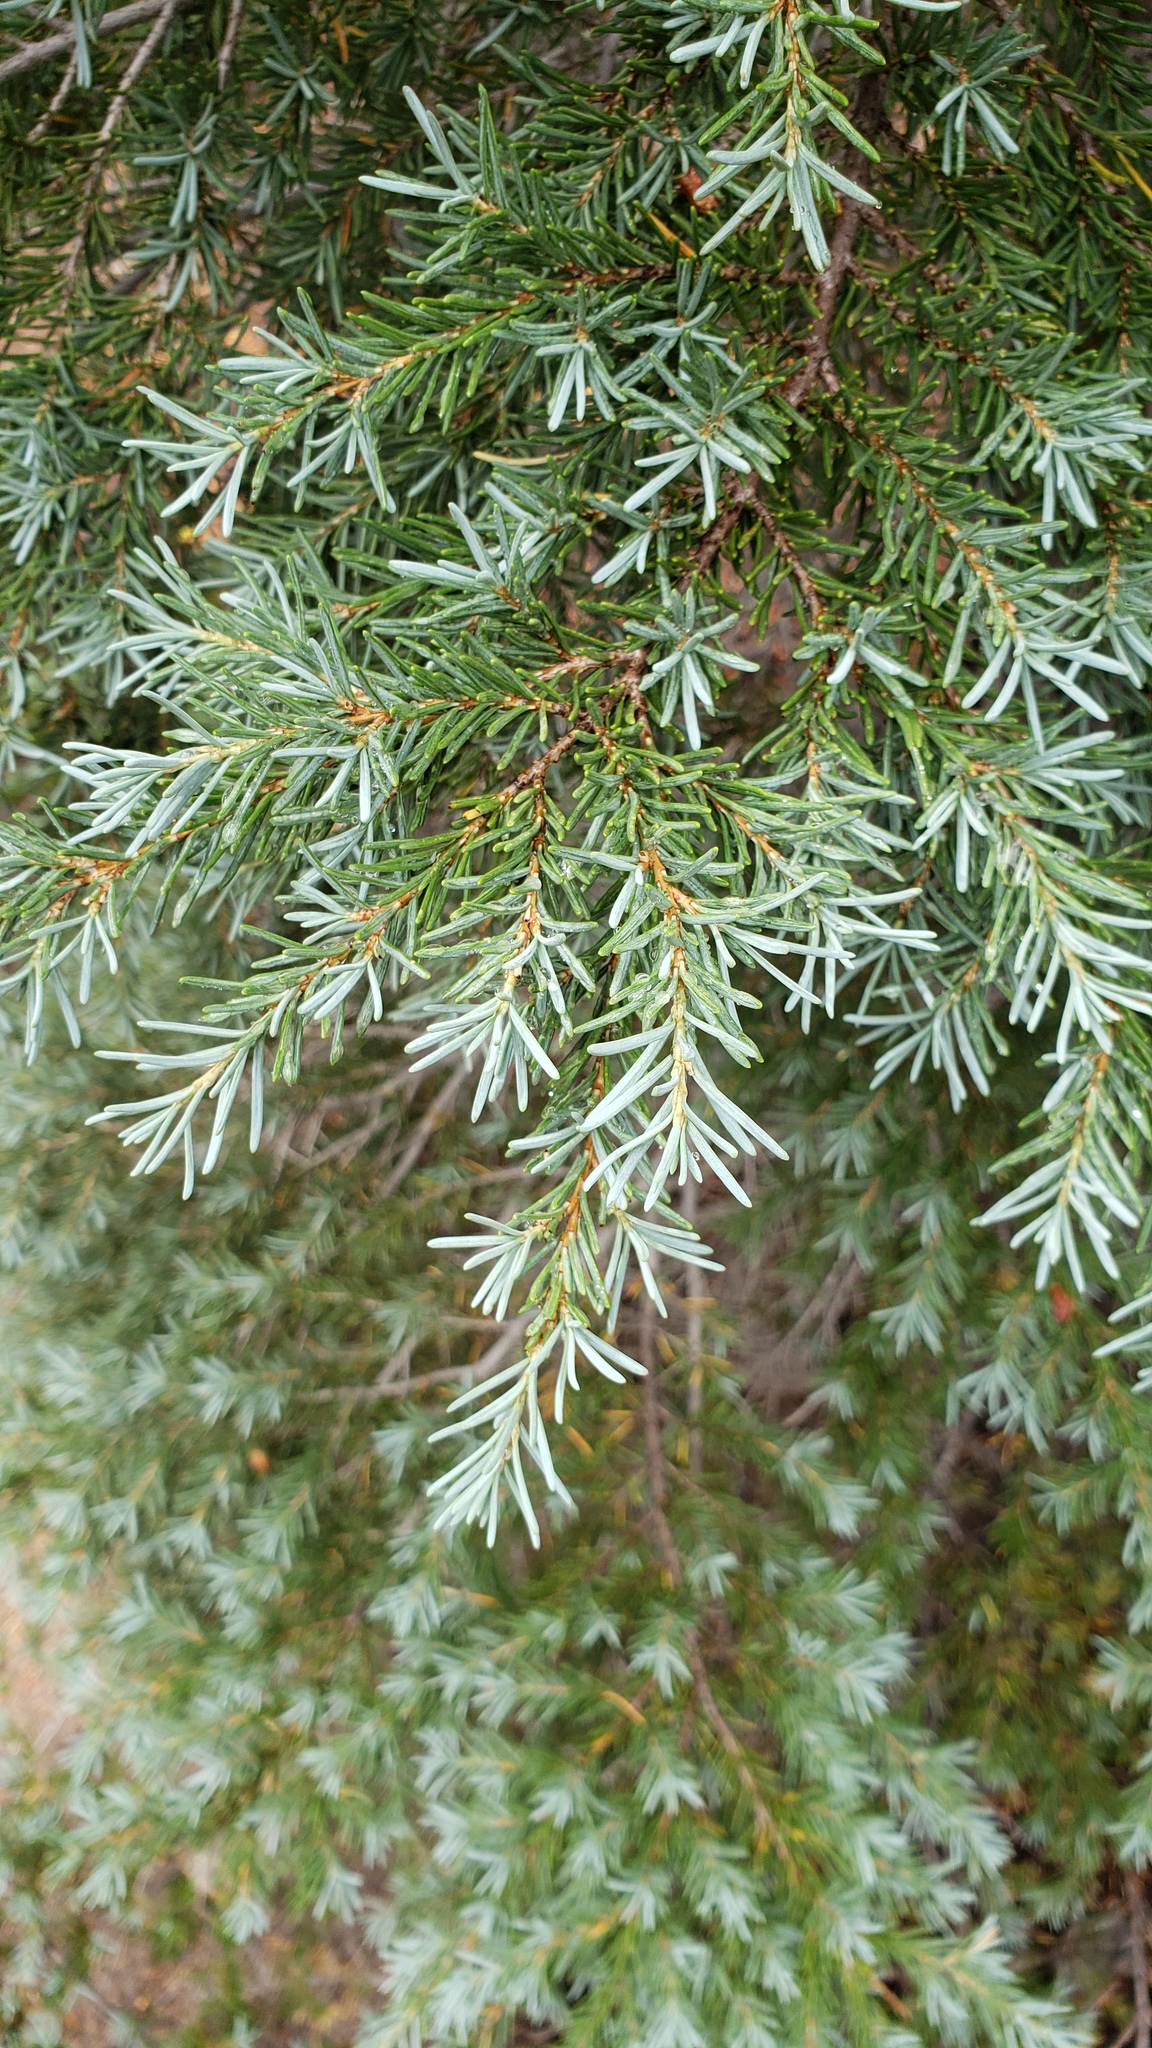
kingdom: Plantae
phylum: Tracheophyta
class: Pinopsida
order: Pinales
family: Pinaceae
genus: Tsuga
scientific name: Tsuga mertensiana
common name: Mountain hemlock
